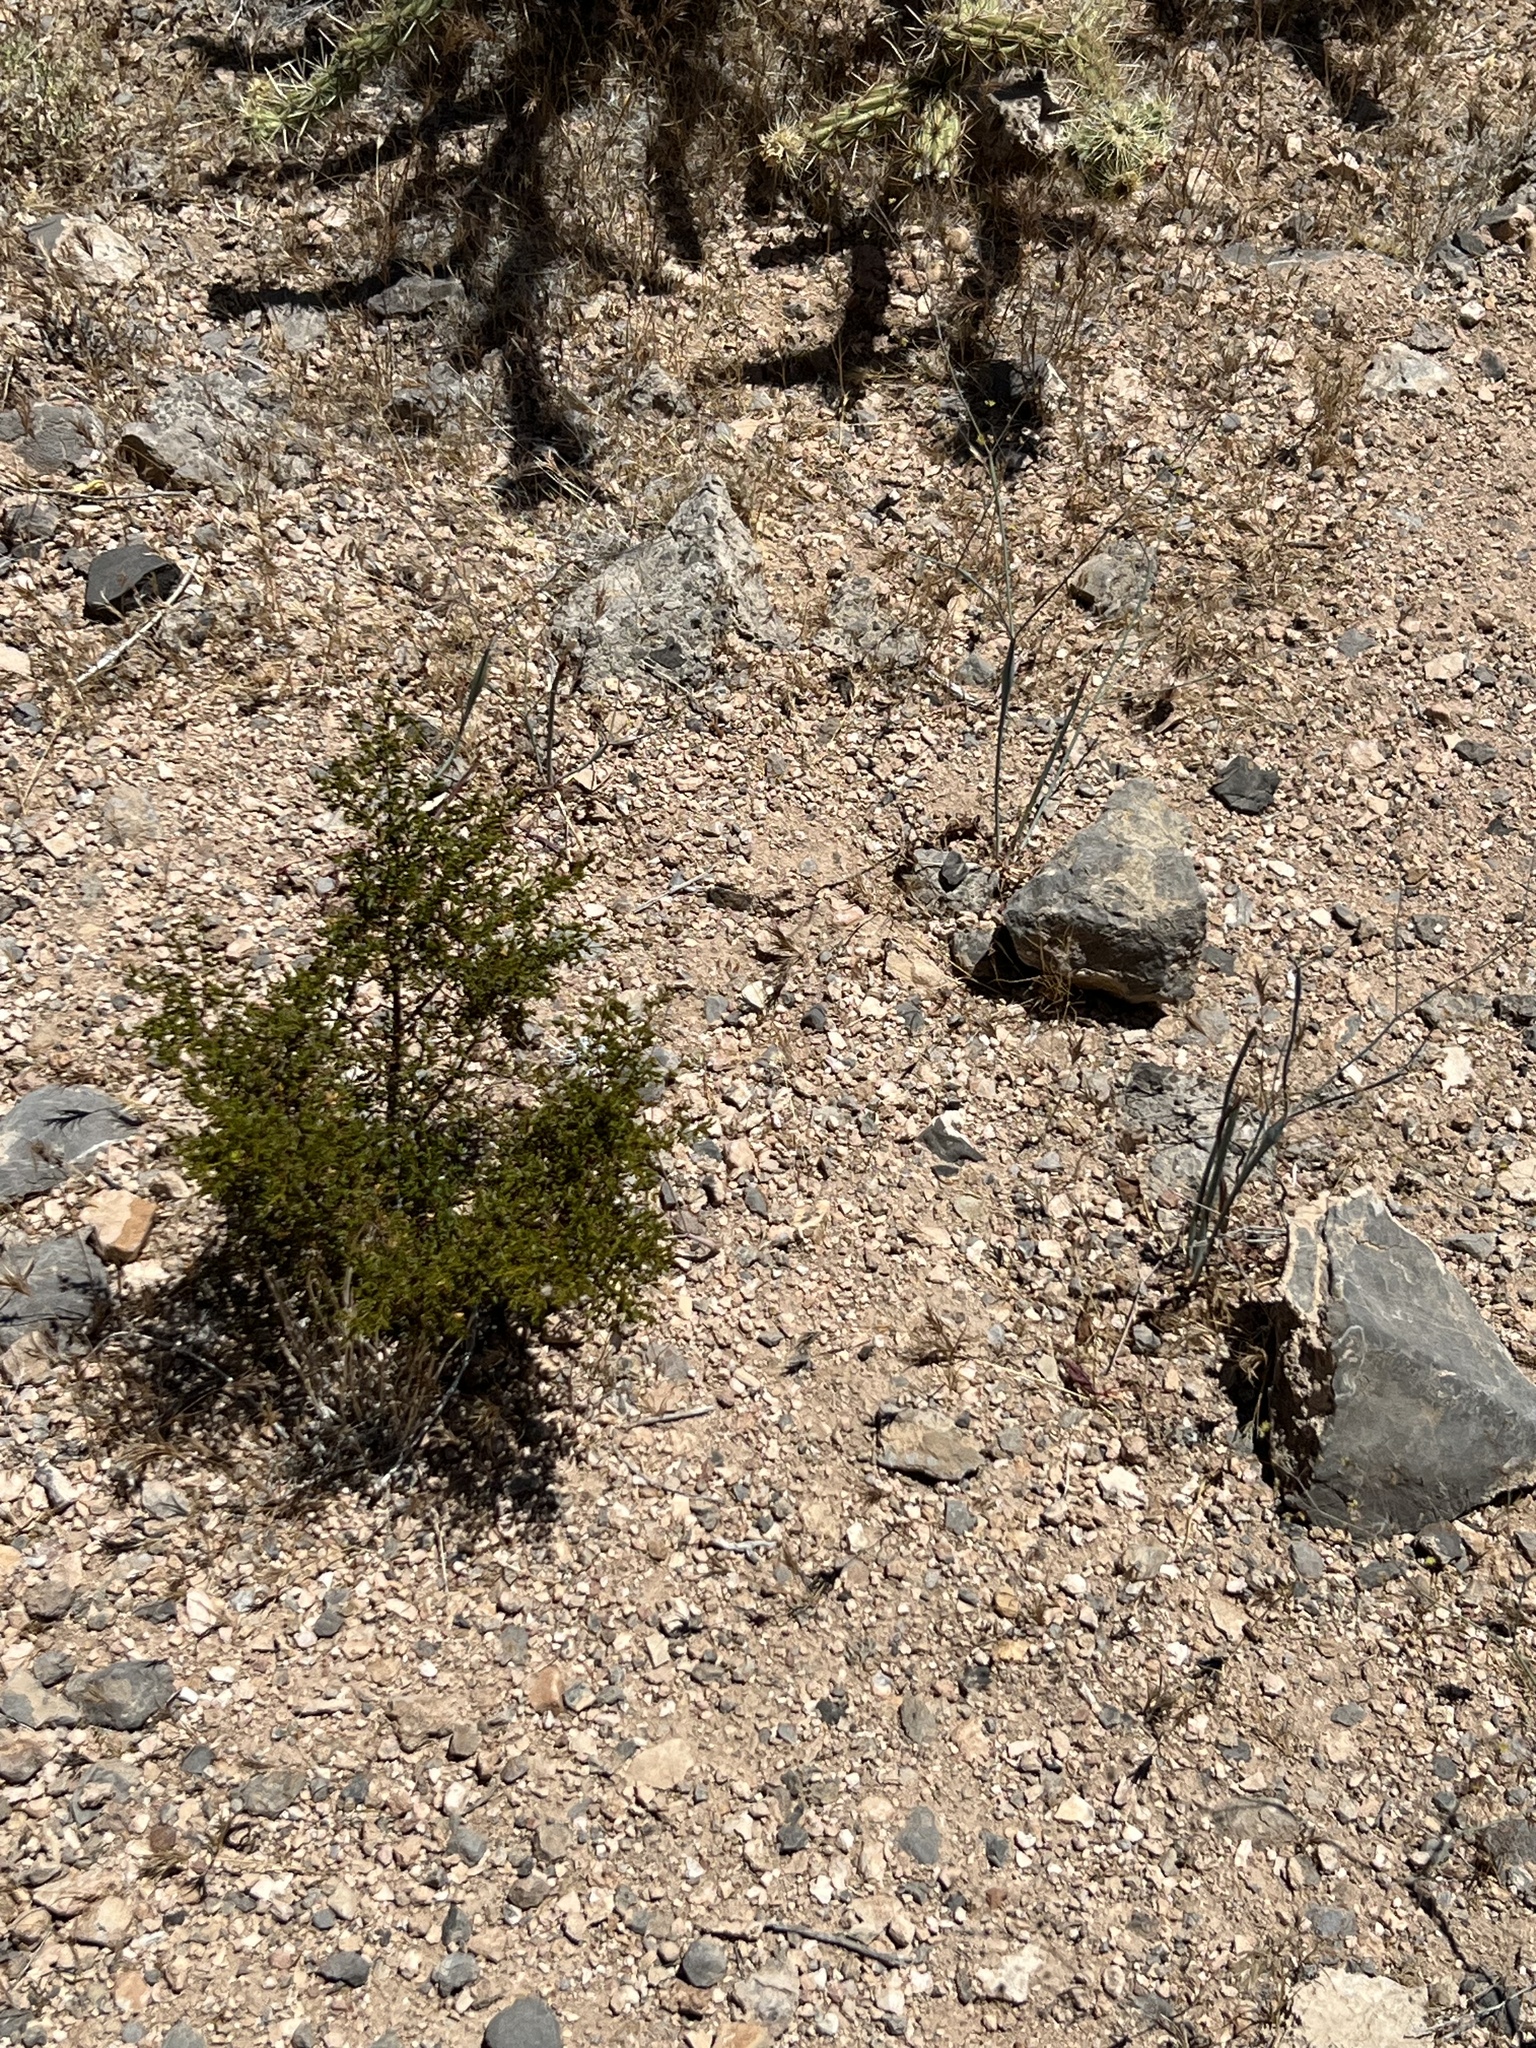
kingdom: Plantae
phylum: Tracheophyta
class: Magnoliopsida
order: Zygophyllales
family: Zygophyllaceae
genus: Larrea
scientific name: Larrea tridentata
